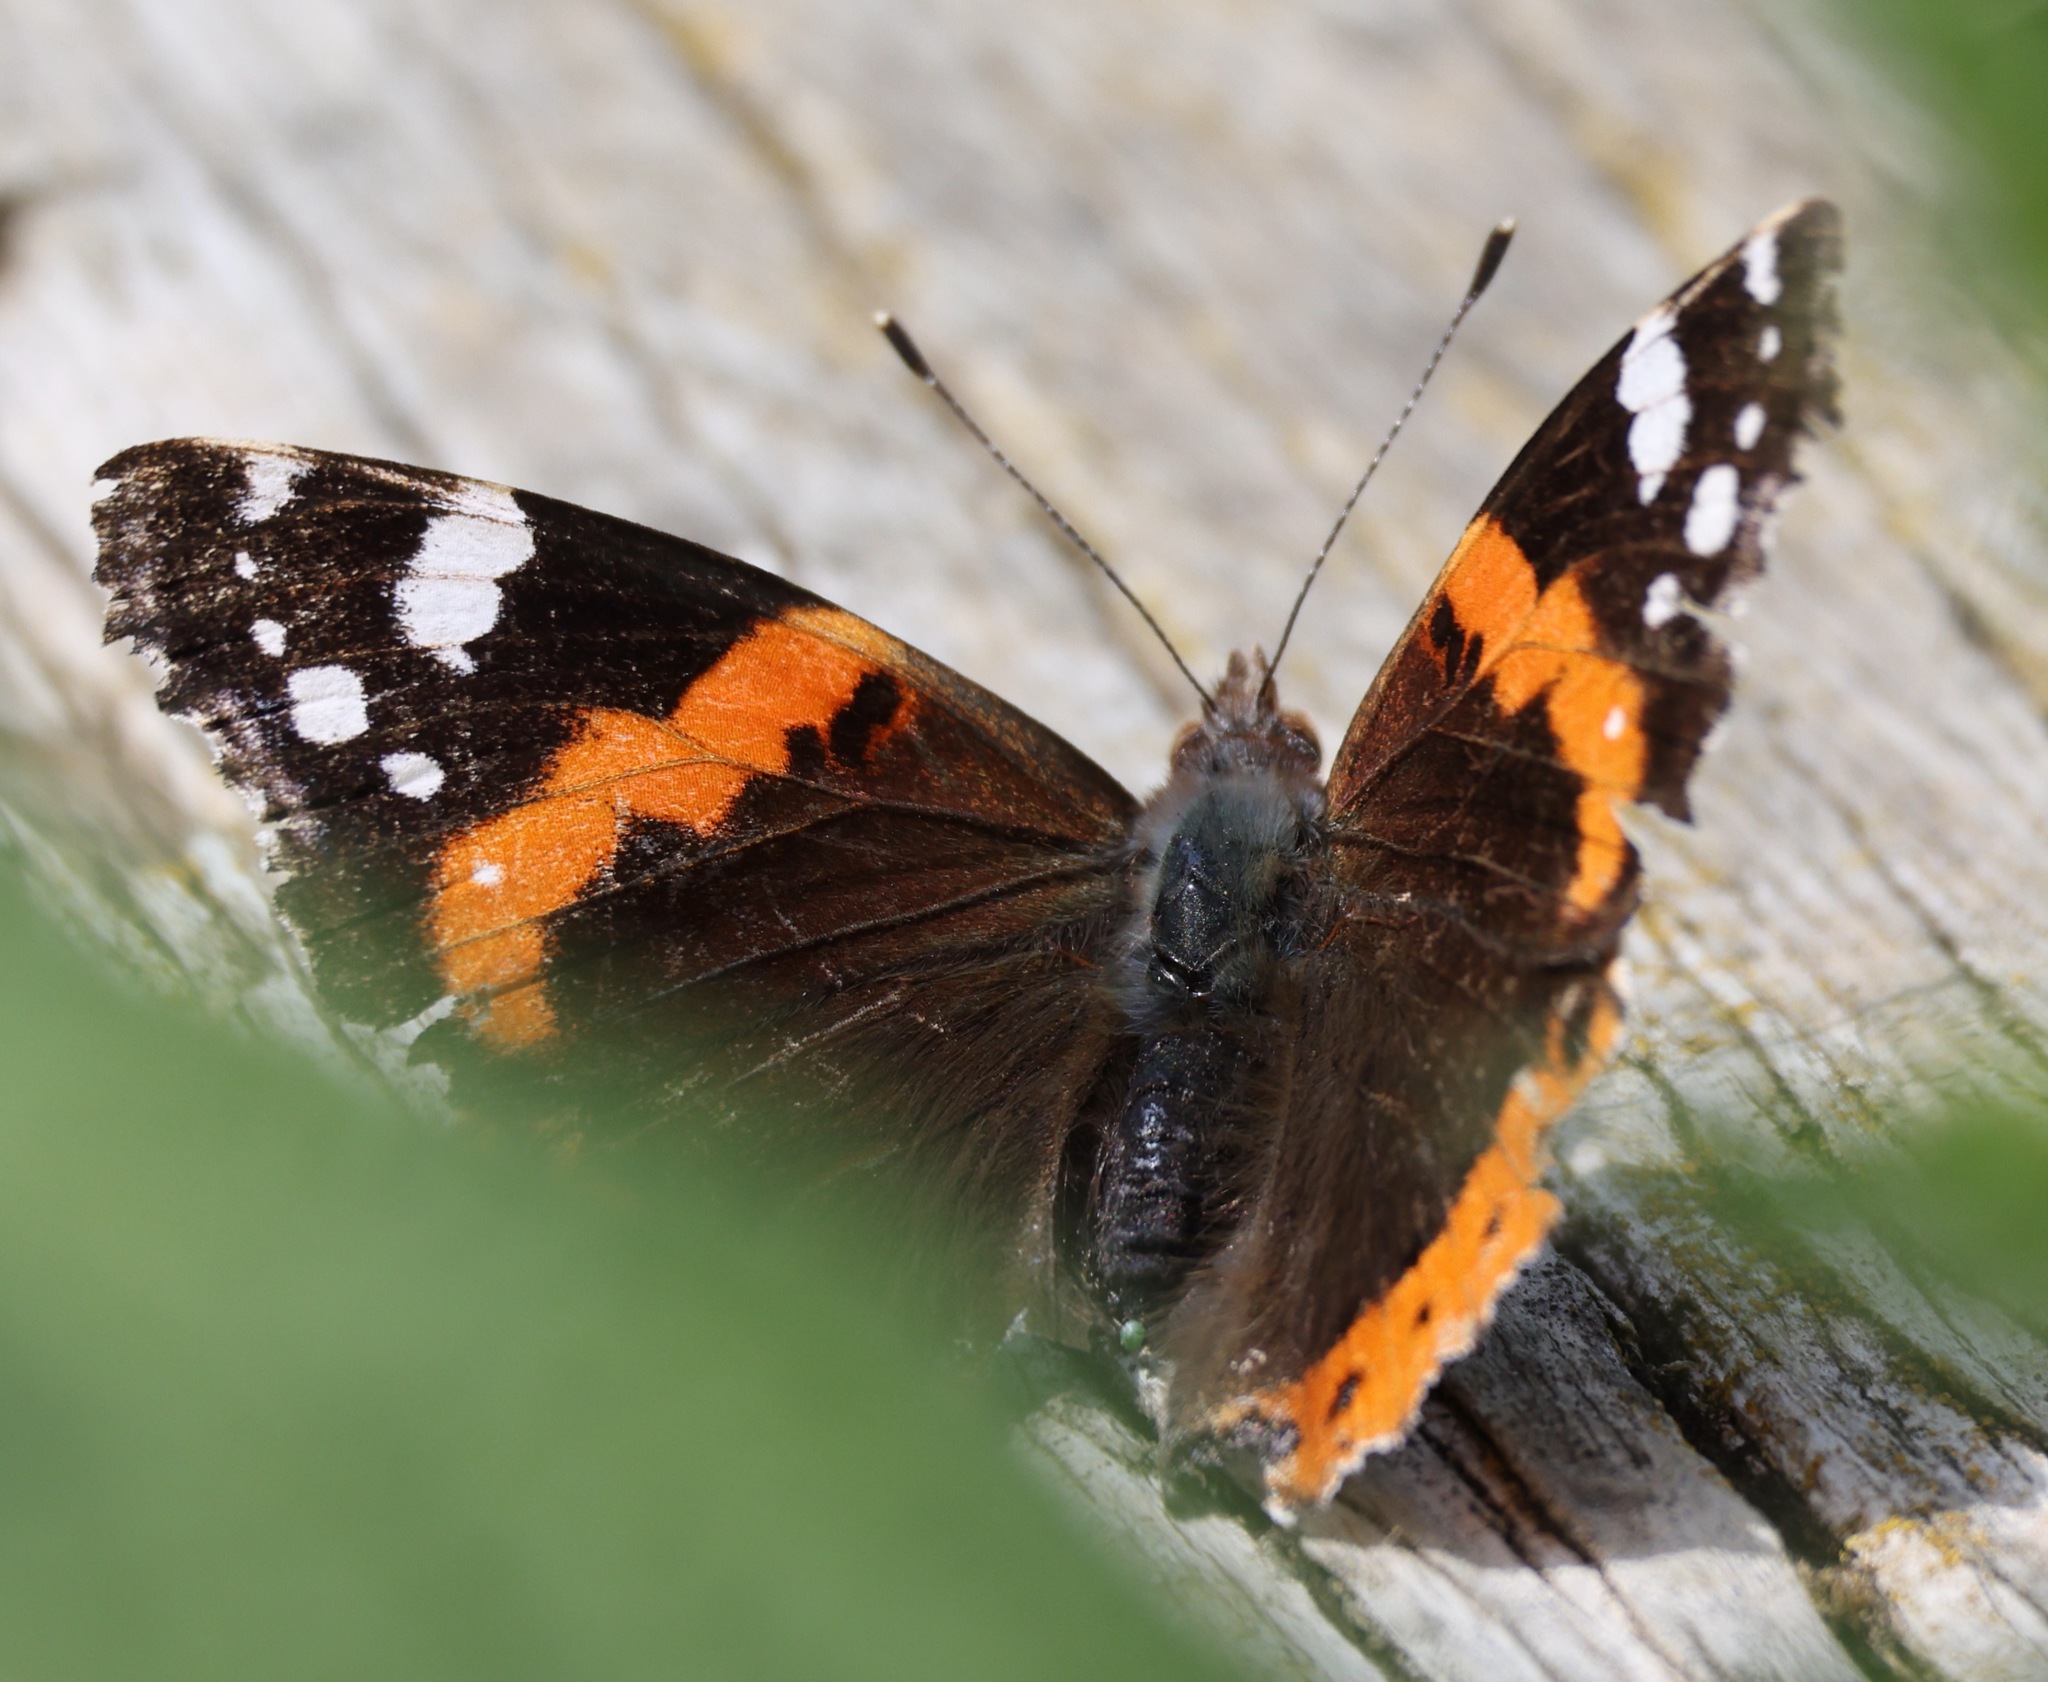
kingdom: Animalia
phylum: Arthropoda
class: Insecta
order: Lepidoptera
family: Nymphalidae
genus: Vanessa
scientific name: Vanessa atalanta
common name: Red admiral
